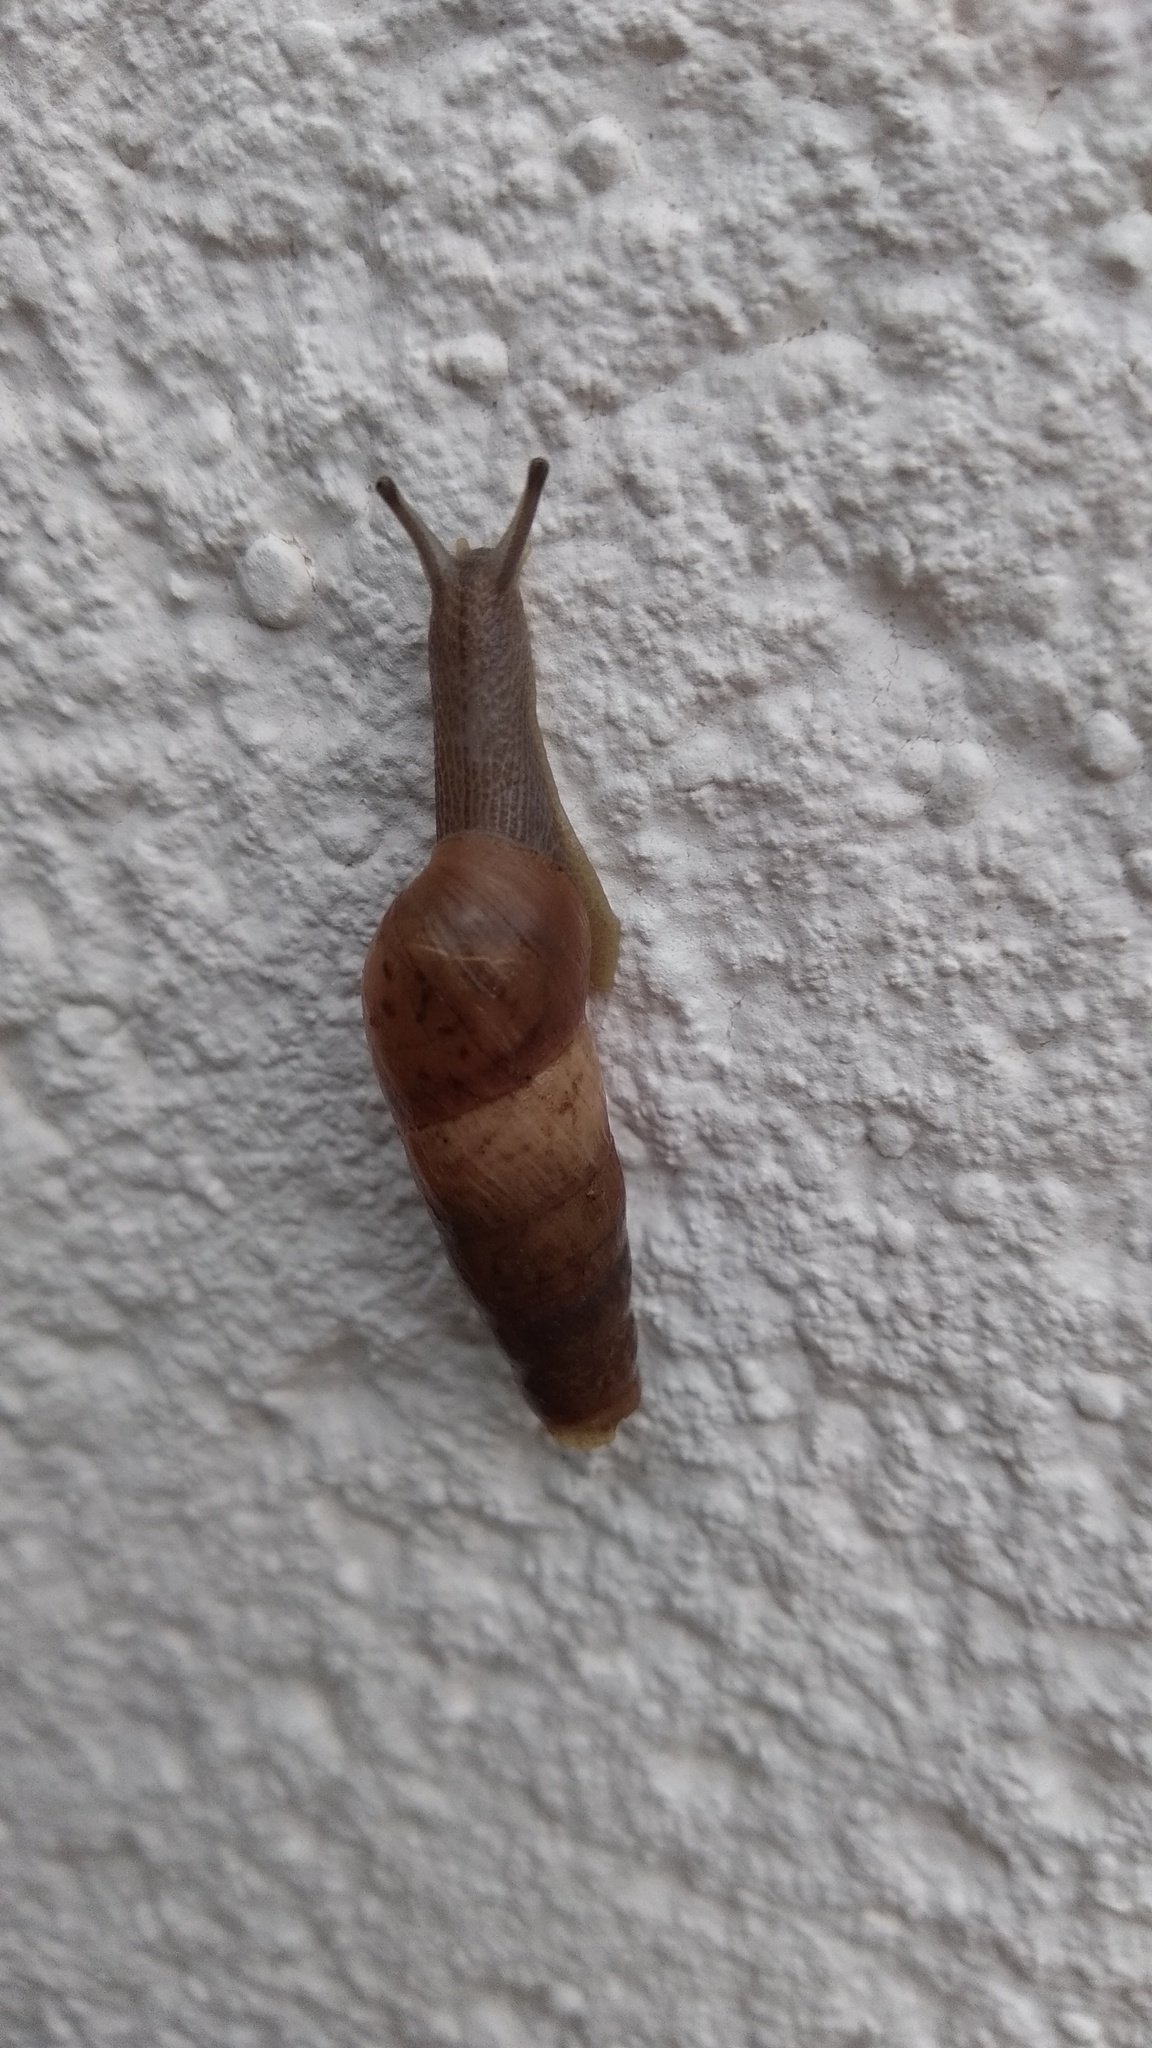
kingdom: Animalia
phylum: Mollusca
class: Gastropoda
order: Stylommatophora
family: Achatinidae
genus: Rumina
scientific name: Rumina decollata
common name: Decollate snail
